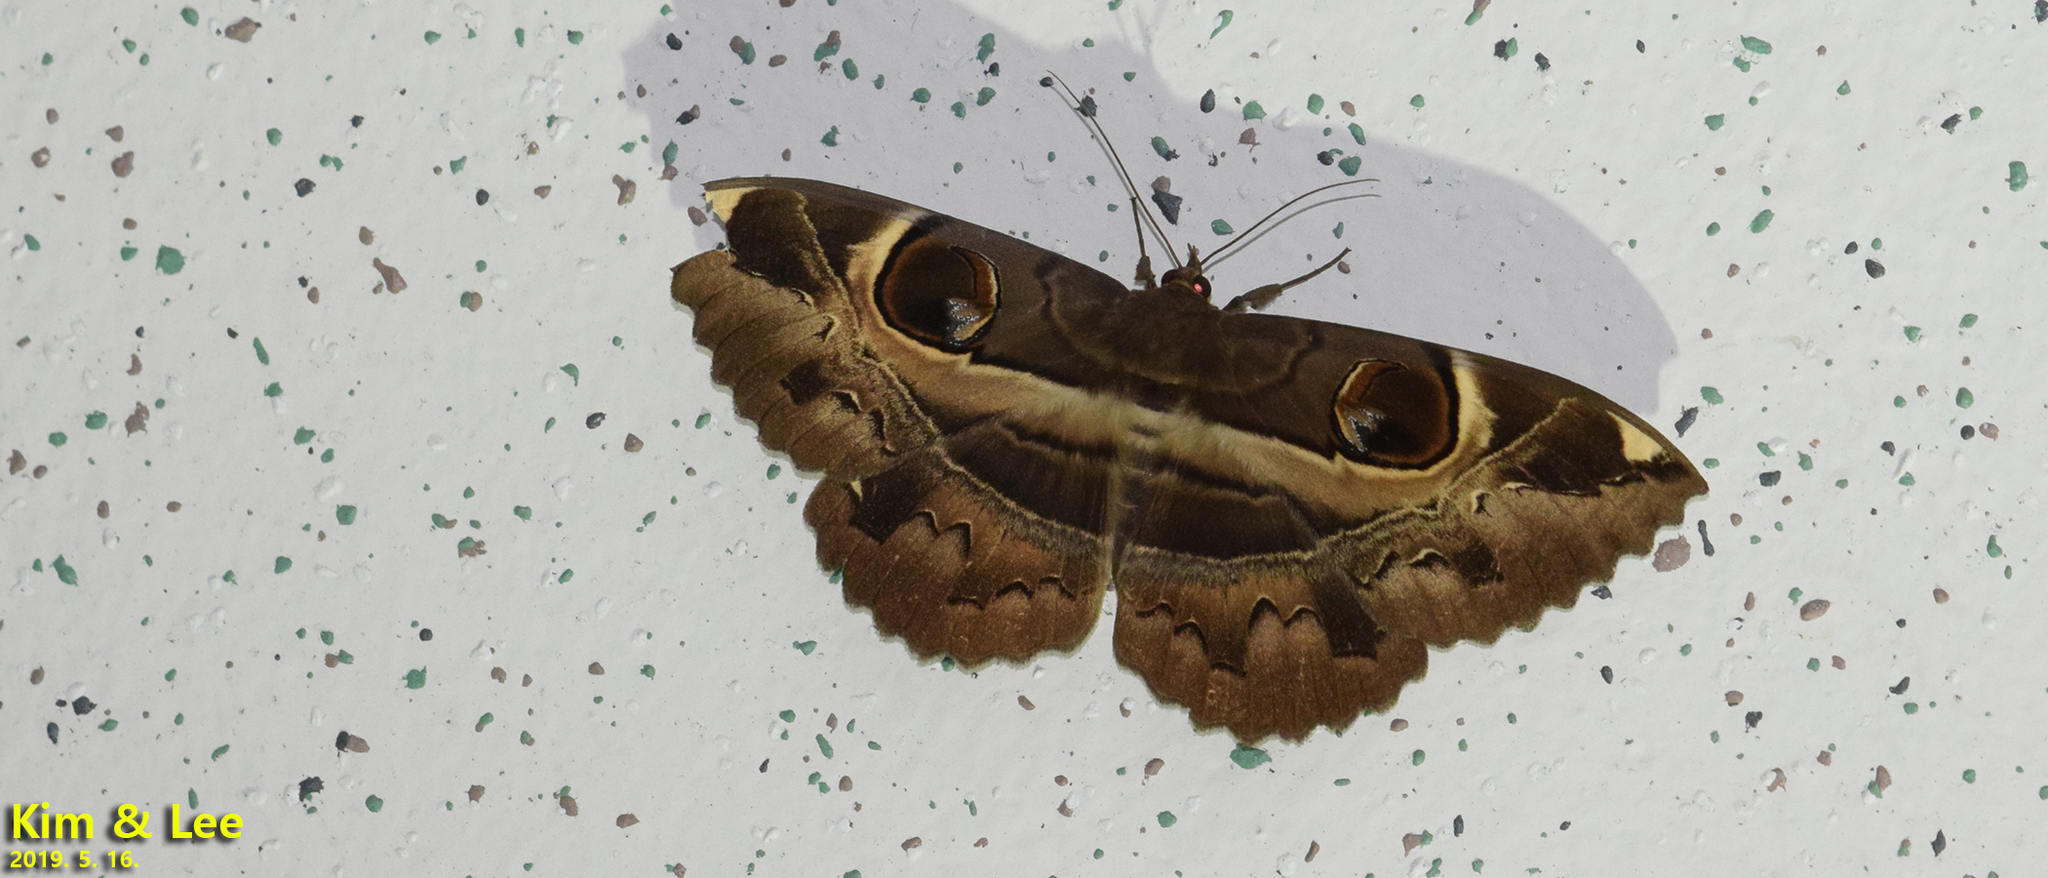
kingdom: Animalia
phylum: Arthropoda
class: Insecta
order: Lepidoptera
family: Erebidae
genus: Erebus
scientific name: Erebus ephesperis
